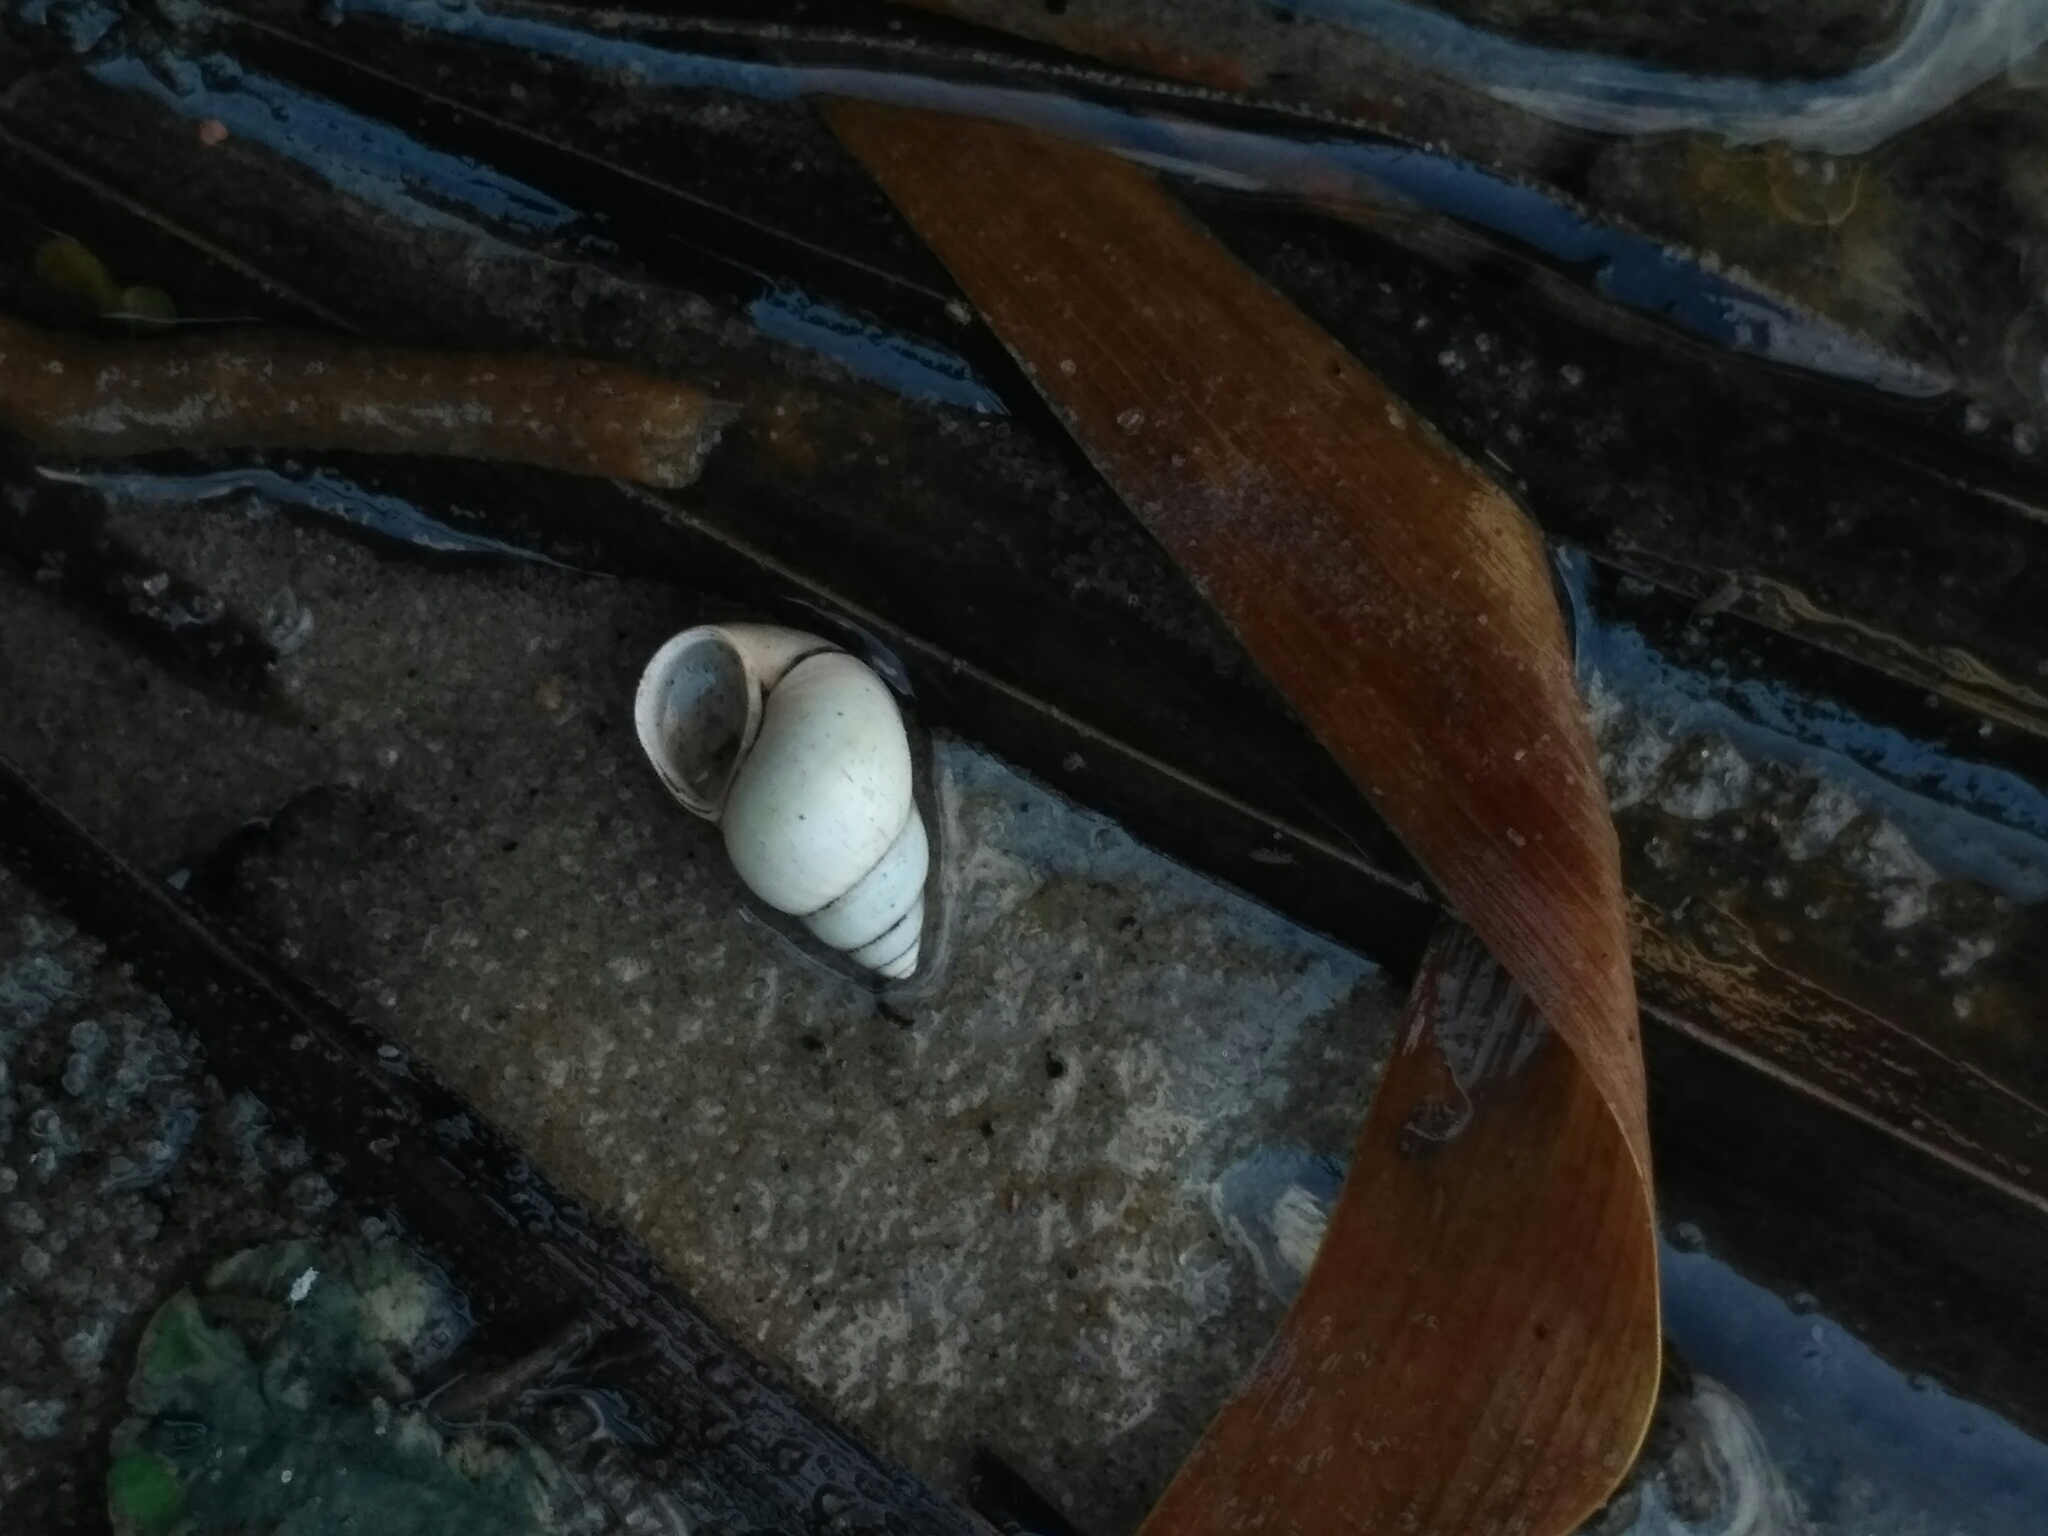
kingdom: Animalia
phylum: Mollusca
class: Gastropoda
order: Littorinimorpha
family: Bithyniidae
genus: Bithynia
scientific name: Bithynia tentaculata
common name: Common bithynia
